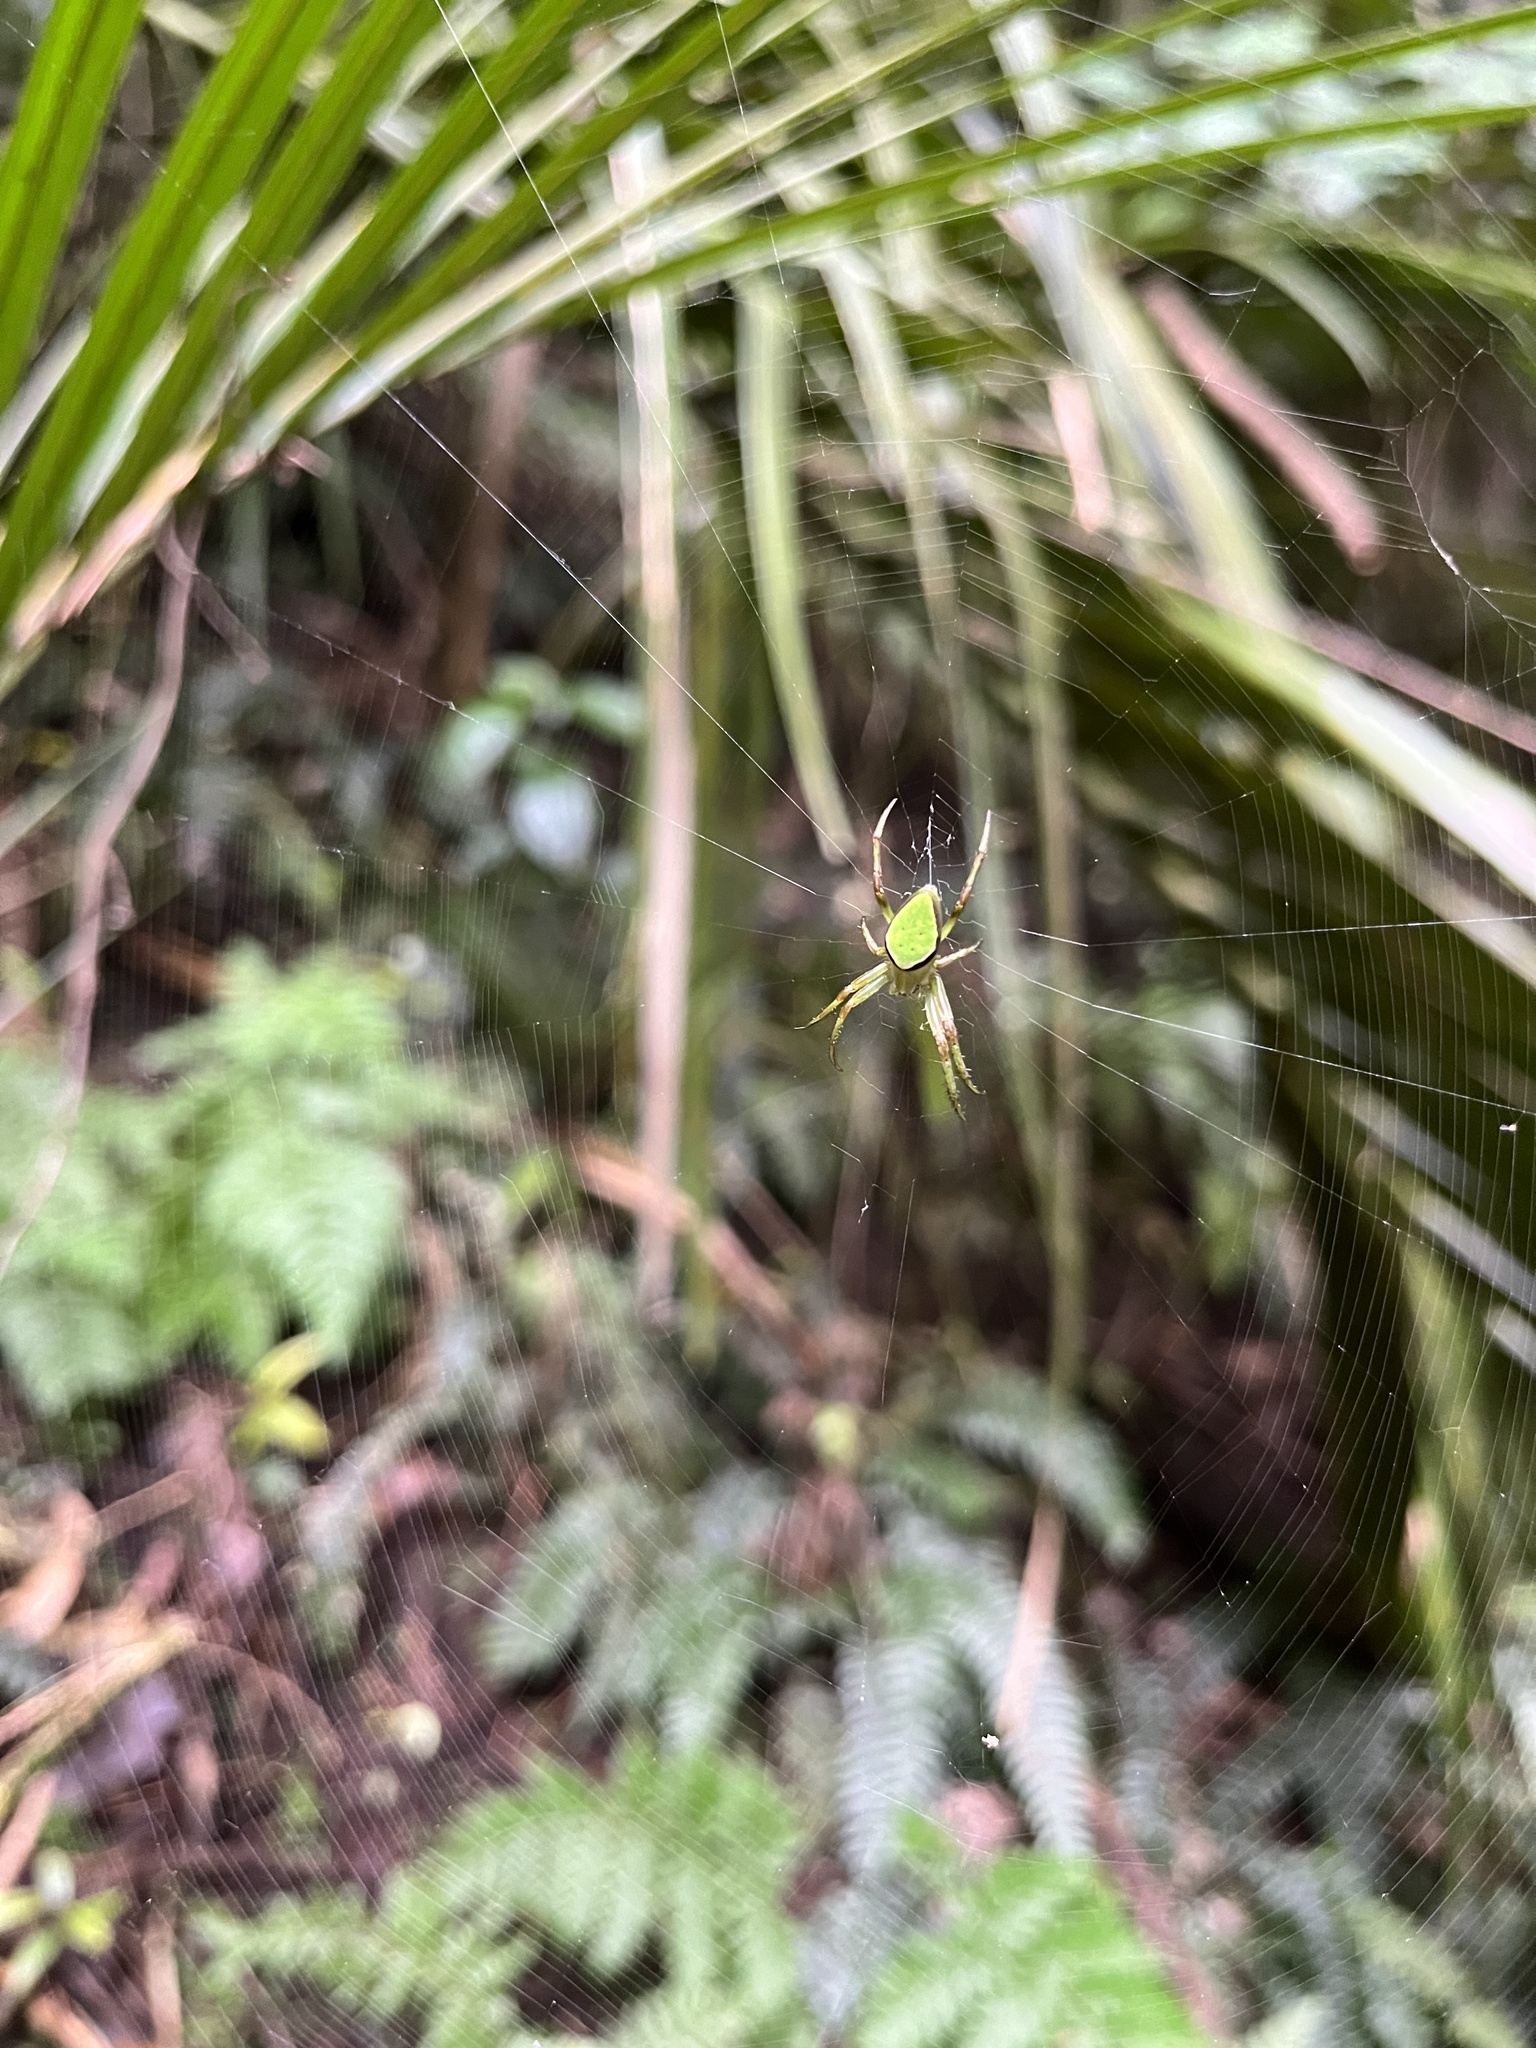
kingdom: Animalia
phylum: Arthropoda
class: Arachnida
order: Araneae
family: Araneidae
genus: Colaranea
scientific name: Colaranea viriditas
